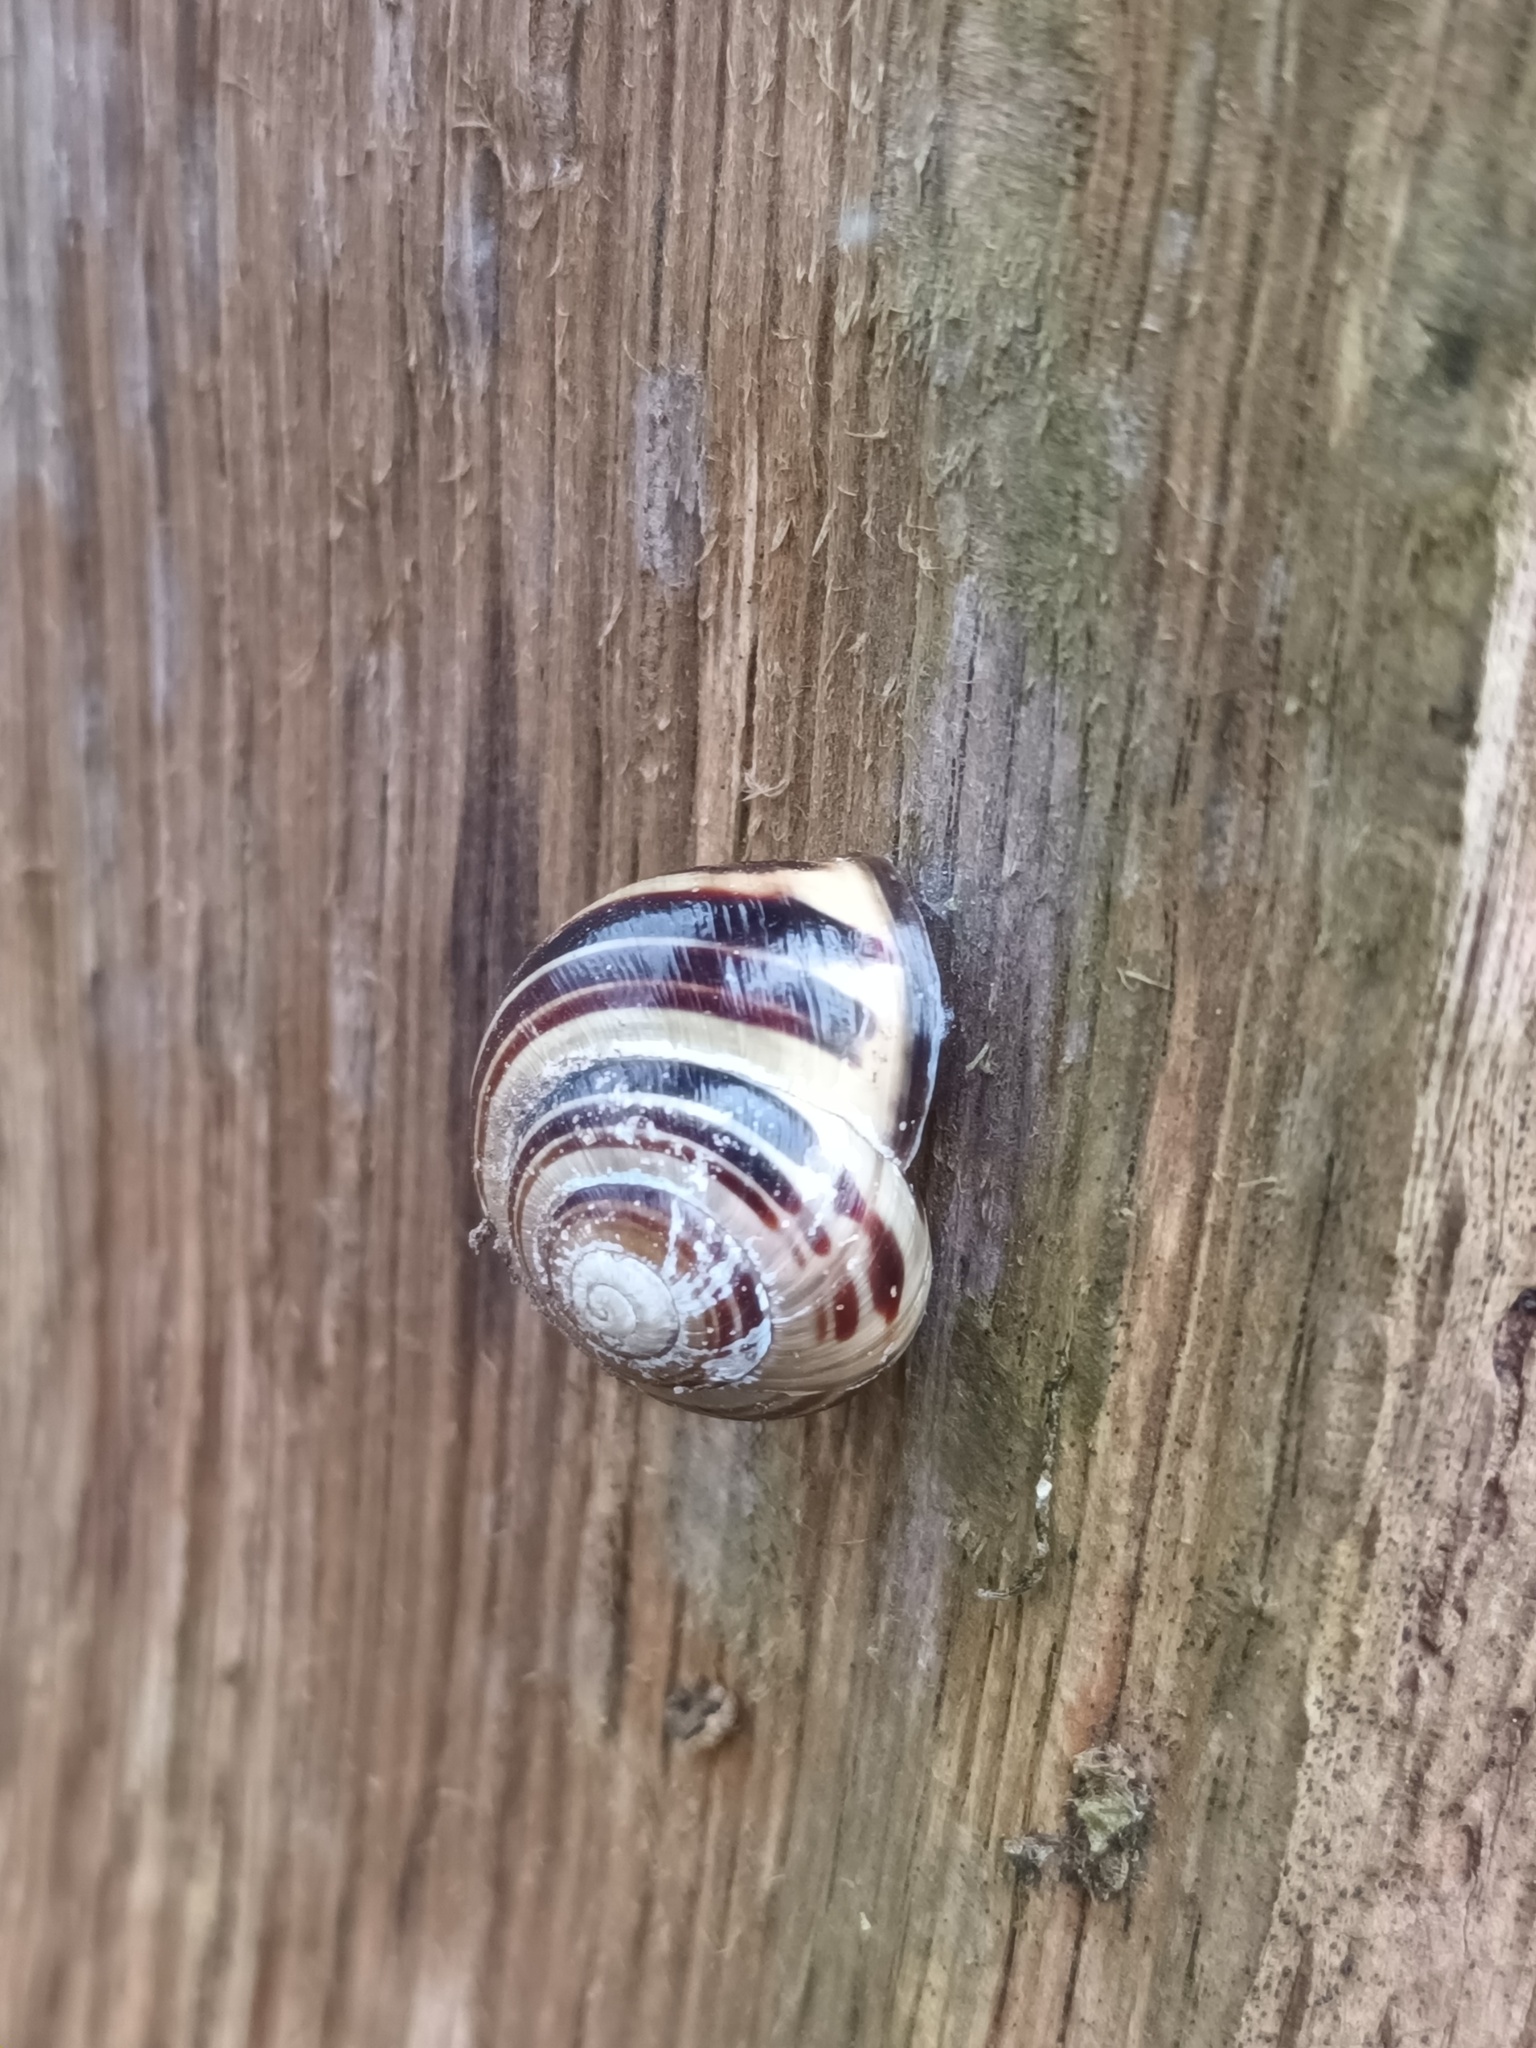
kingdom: Animalia
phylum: Mollusca
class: Gastropoda
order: Stylommatophora
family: Helicidae
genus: Cepaea
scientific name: Cepaea nemoralis
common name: Grovesnail
